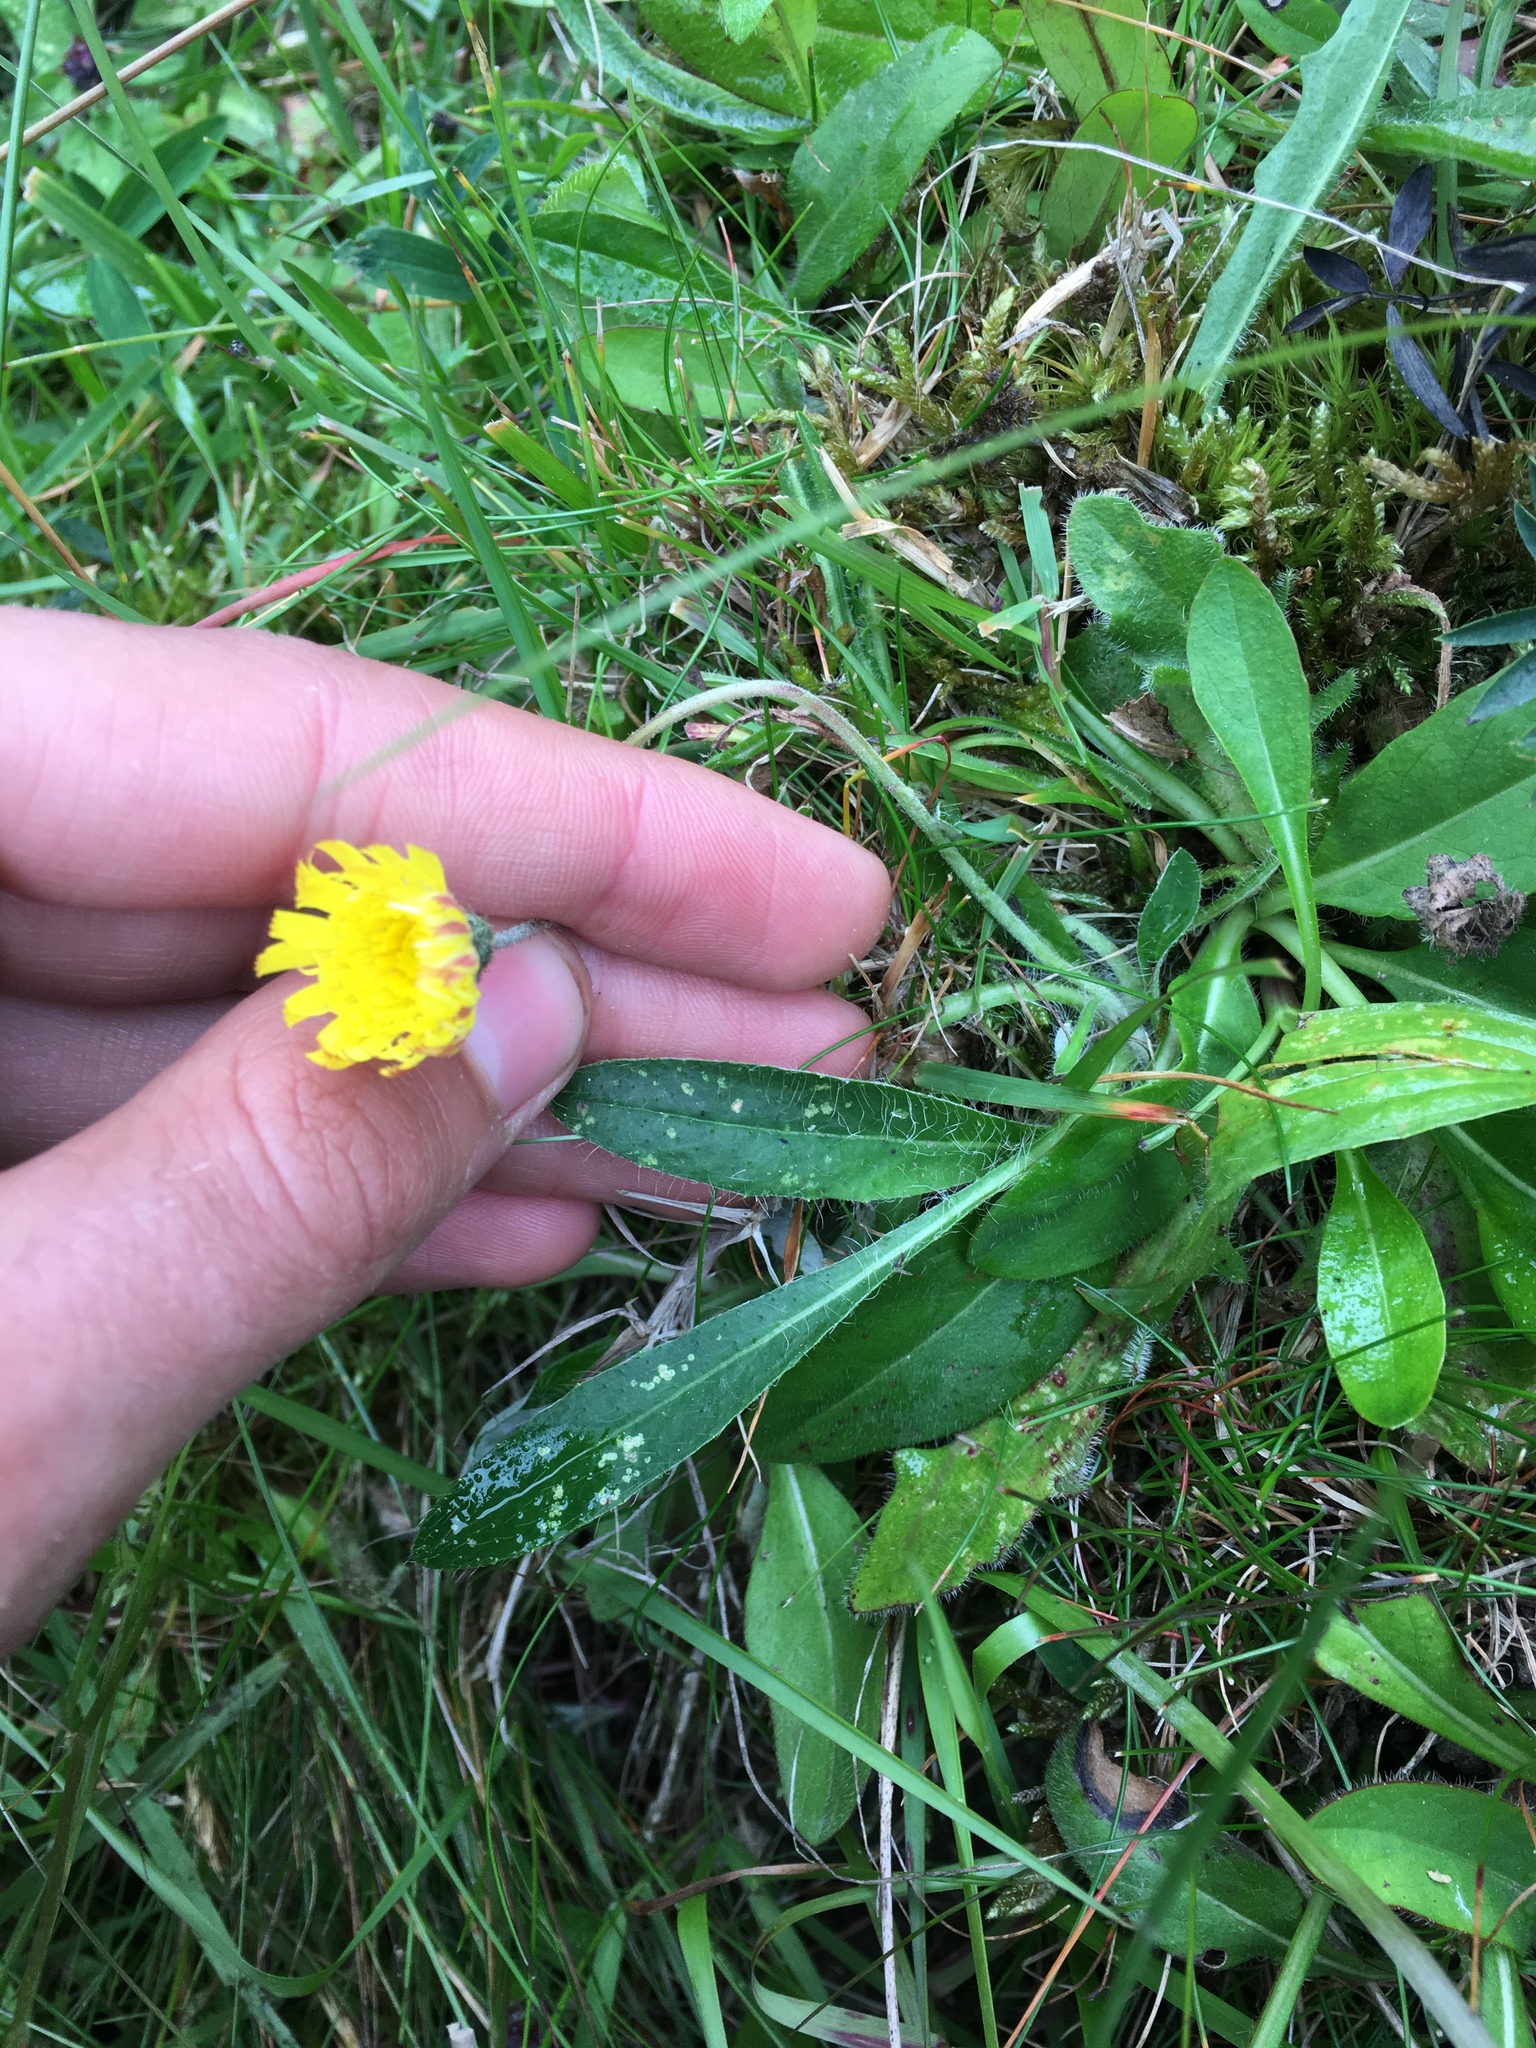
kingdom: Plantae
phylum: Tracheophyta
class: Magnoliopsida
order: Asterales
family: Asteraceae
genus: Pilosella
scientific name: Pilosella officinarum
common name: Mouse-ear hawkweed
